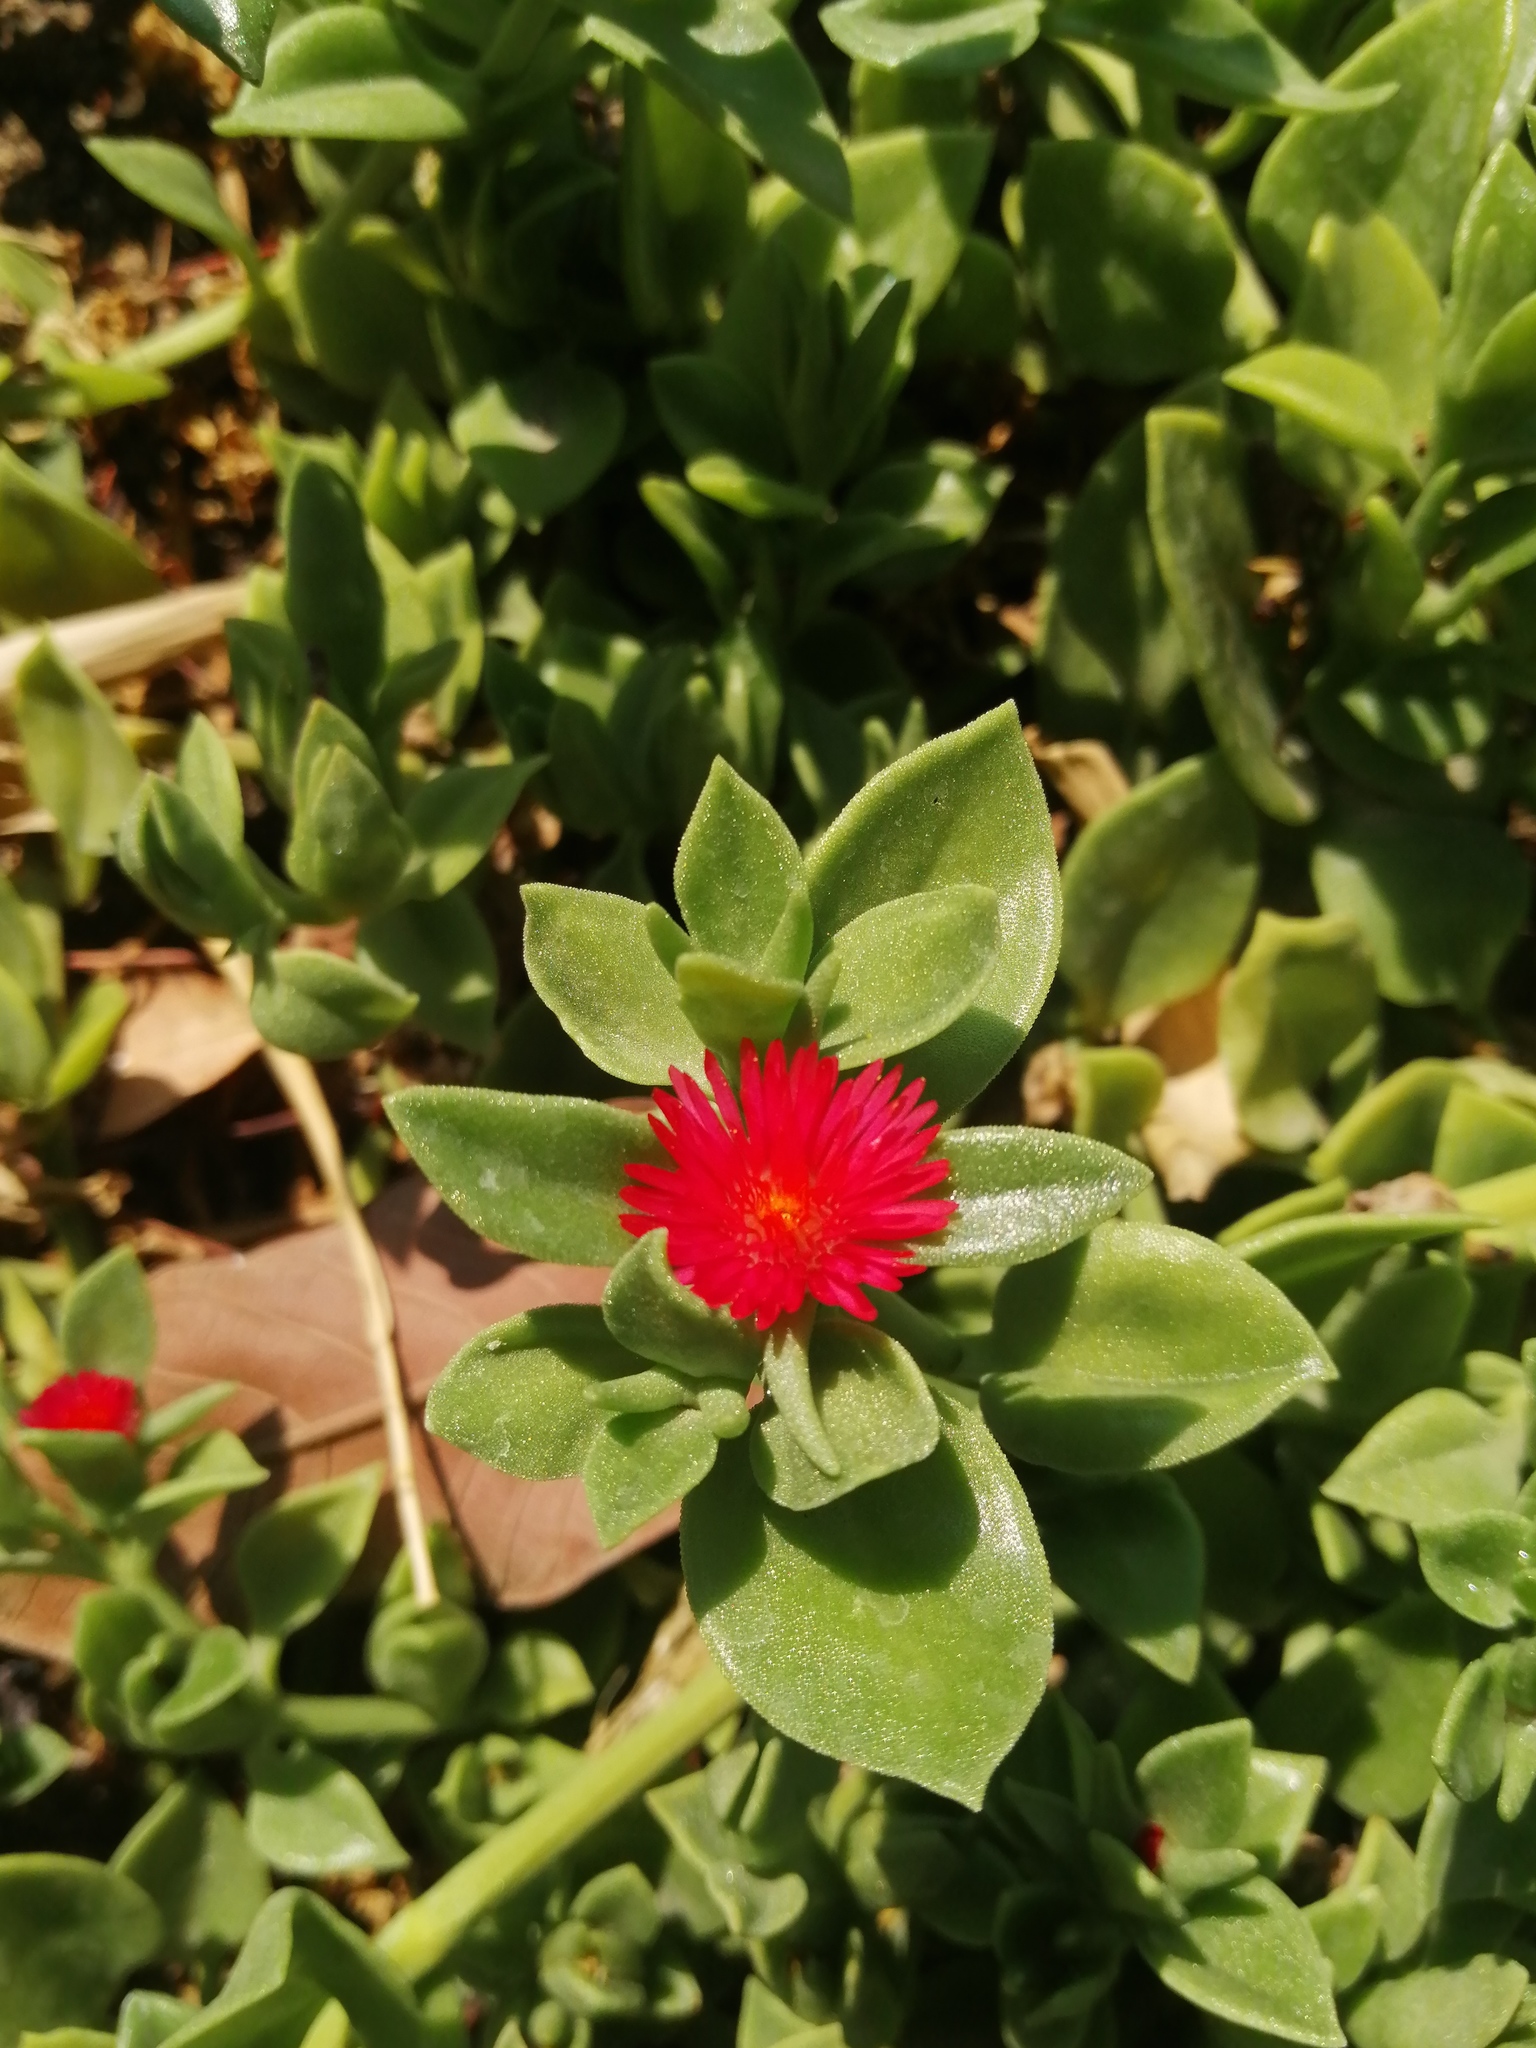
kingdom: Plantae
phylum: Tracheophyta
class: Magnoliopsida
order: Caryophyllales
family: Aizoaceae
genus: Mesembryanthemum
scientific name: Mesembryanthemum cordifolium
